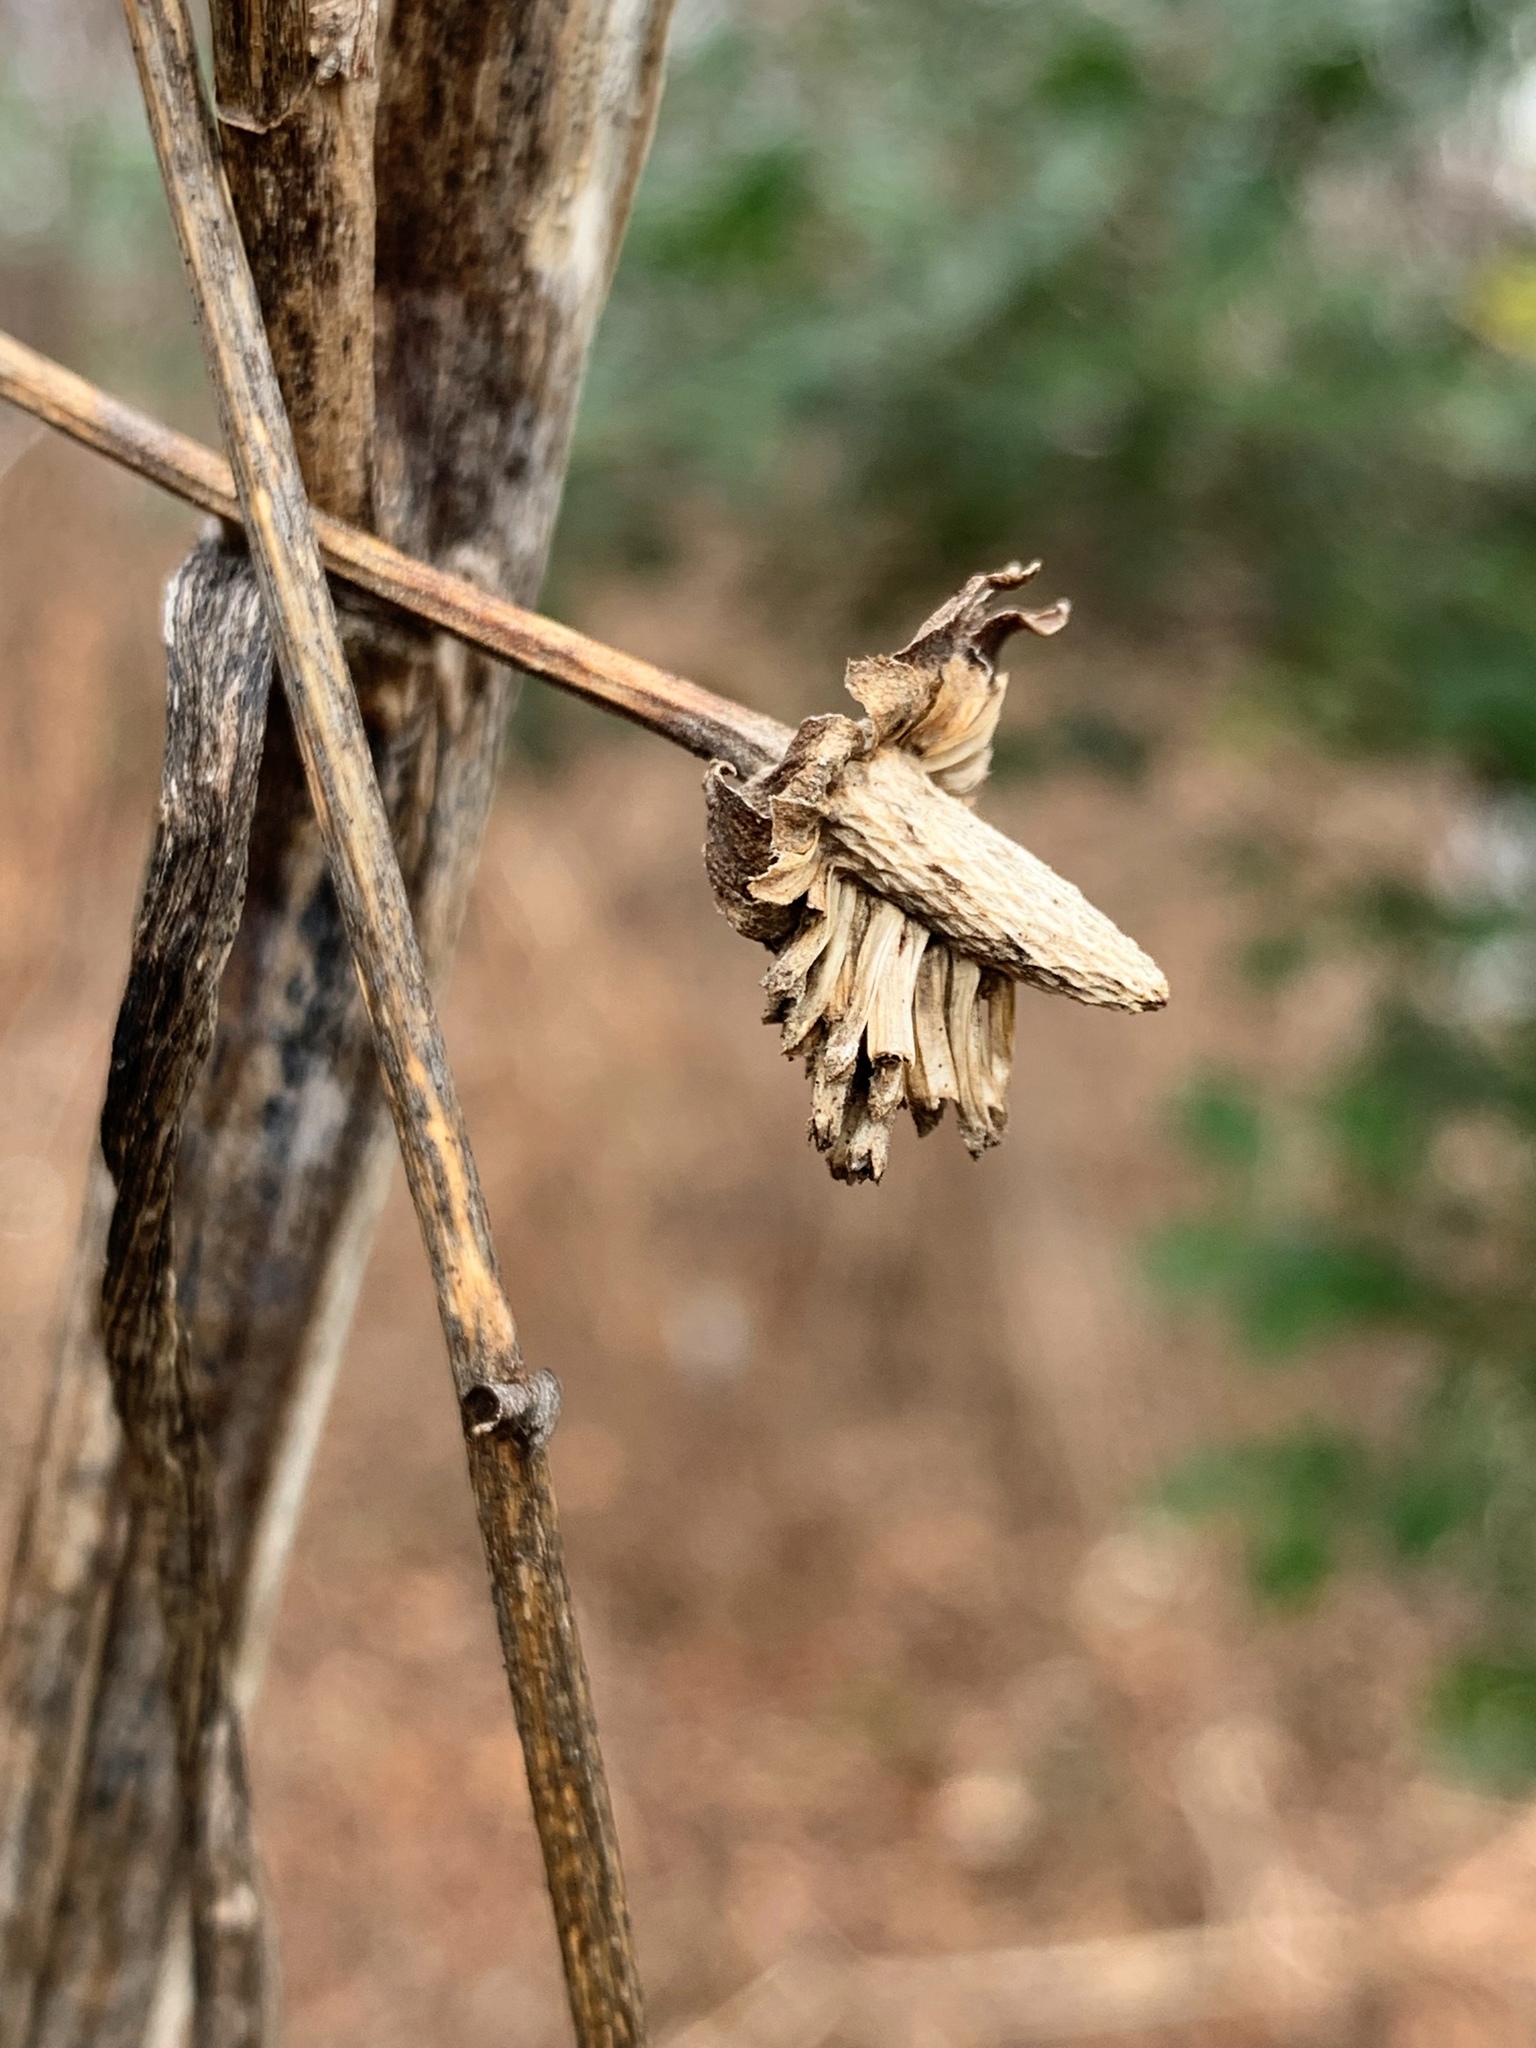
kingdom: Plantae
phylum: Tracheophyta
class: Magnoliopsida
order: Asterales
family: Asteraceae
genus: Rudbeckia
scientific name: Rudbeckia laciniata
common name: Coneflower
